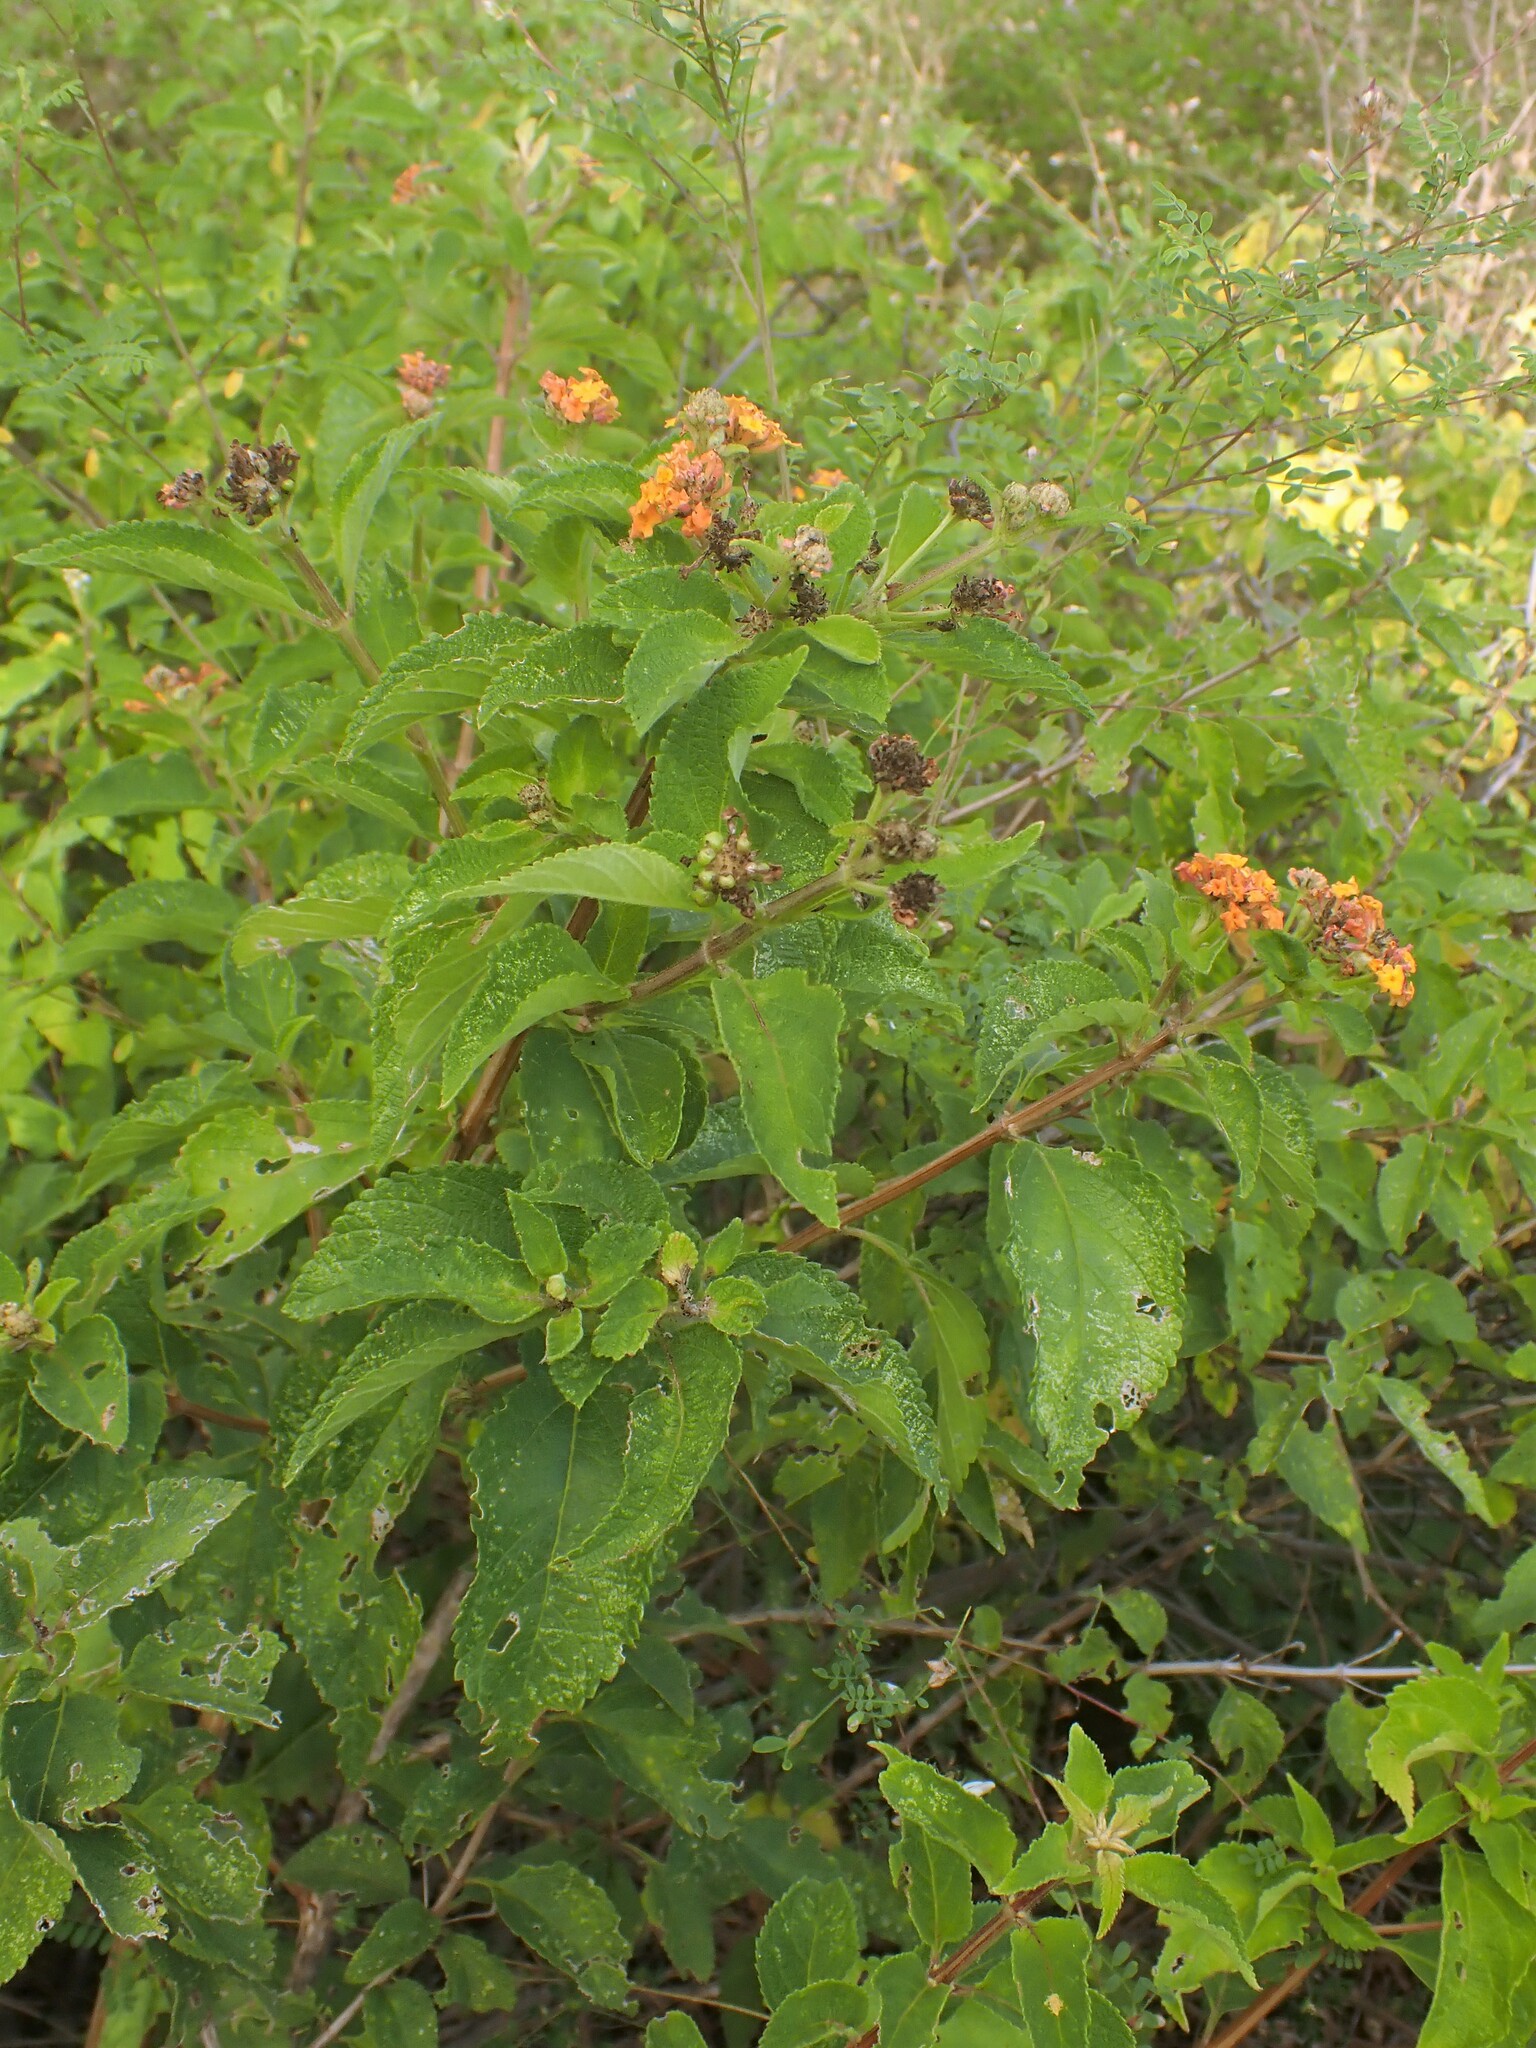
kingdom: Plantae
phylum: Tracheophyta
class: Magnoliopsida
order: Lamiales
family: Verbenaceae
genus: Lantana
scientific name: Lantana camara
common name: Lantana
